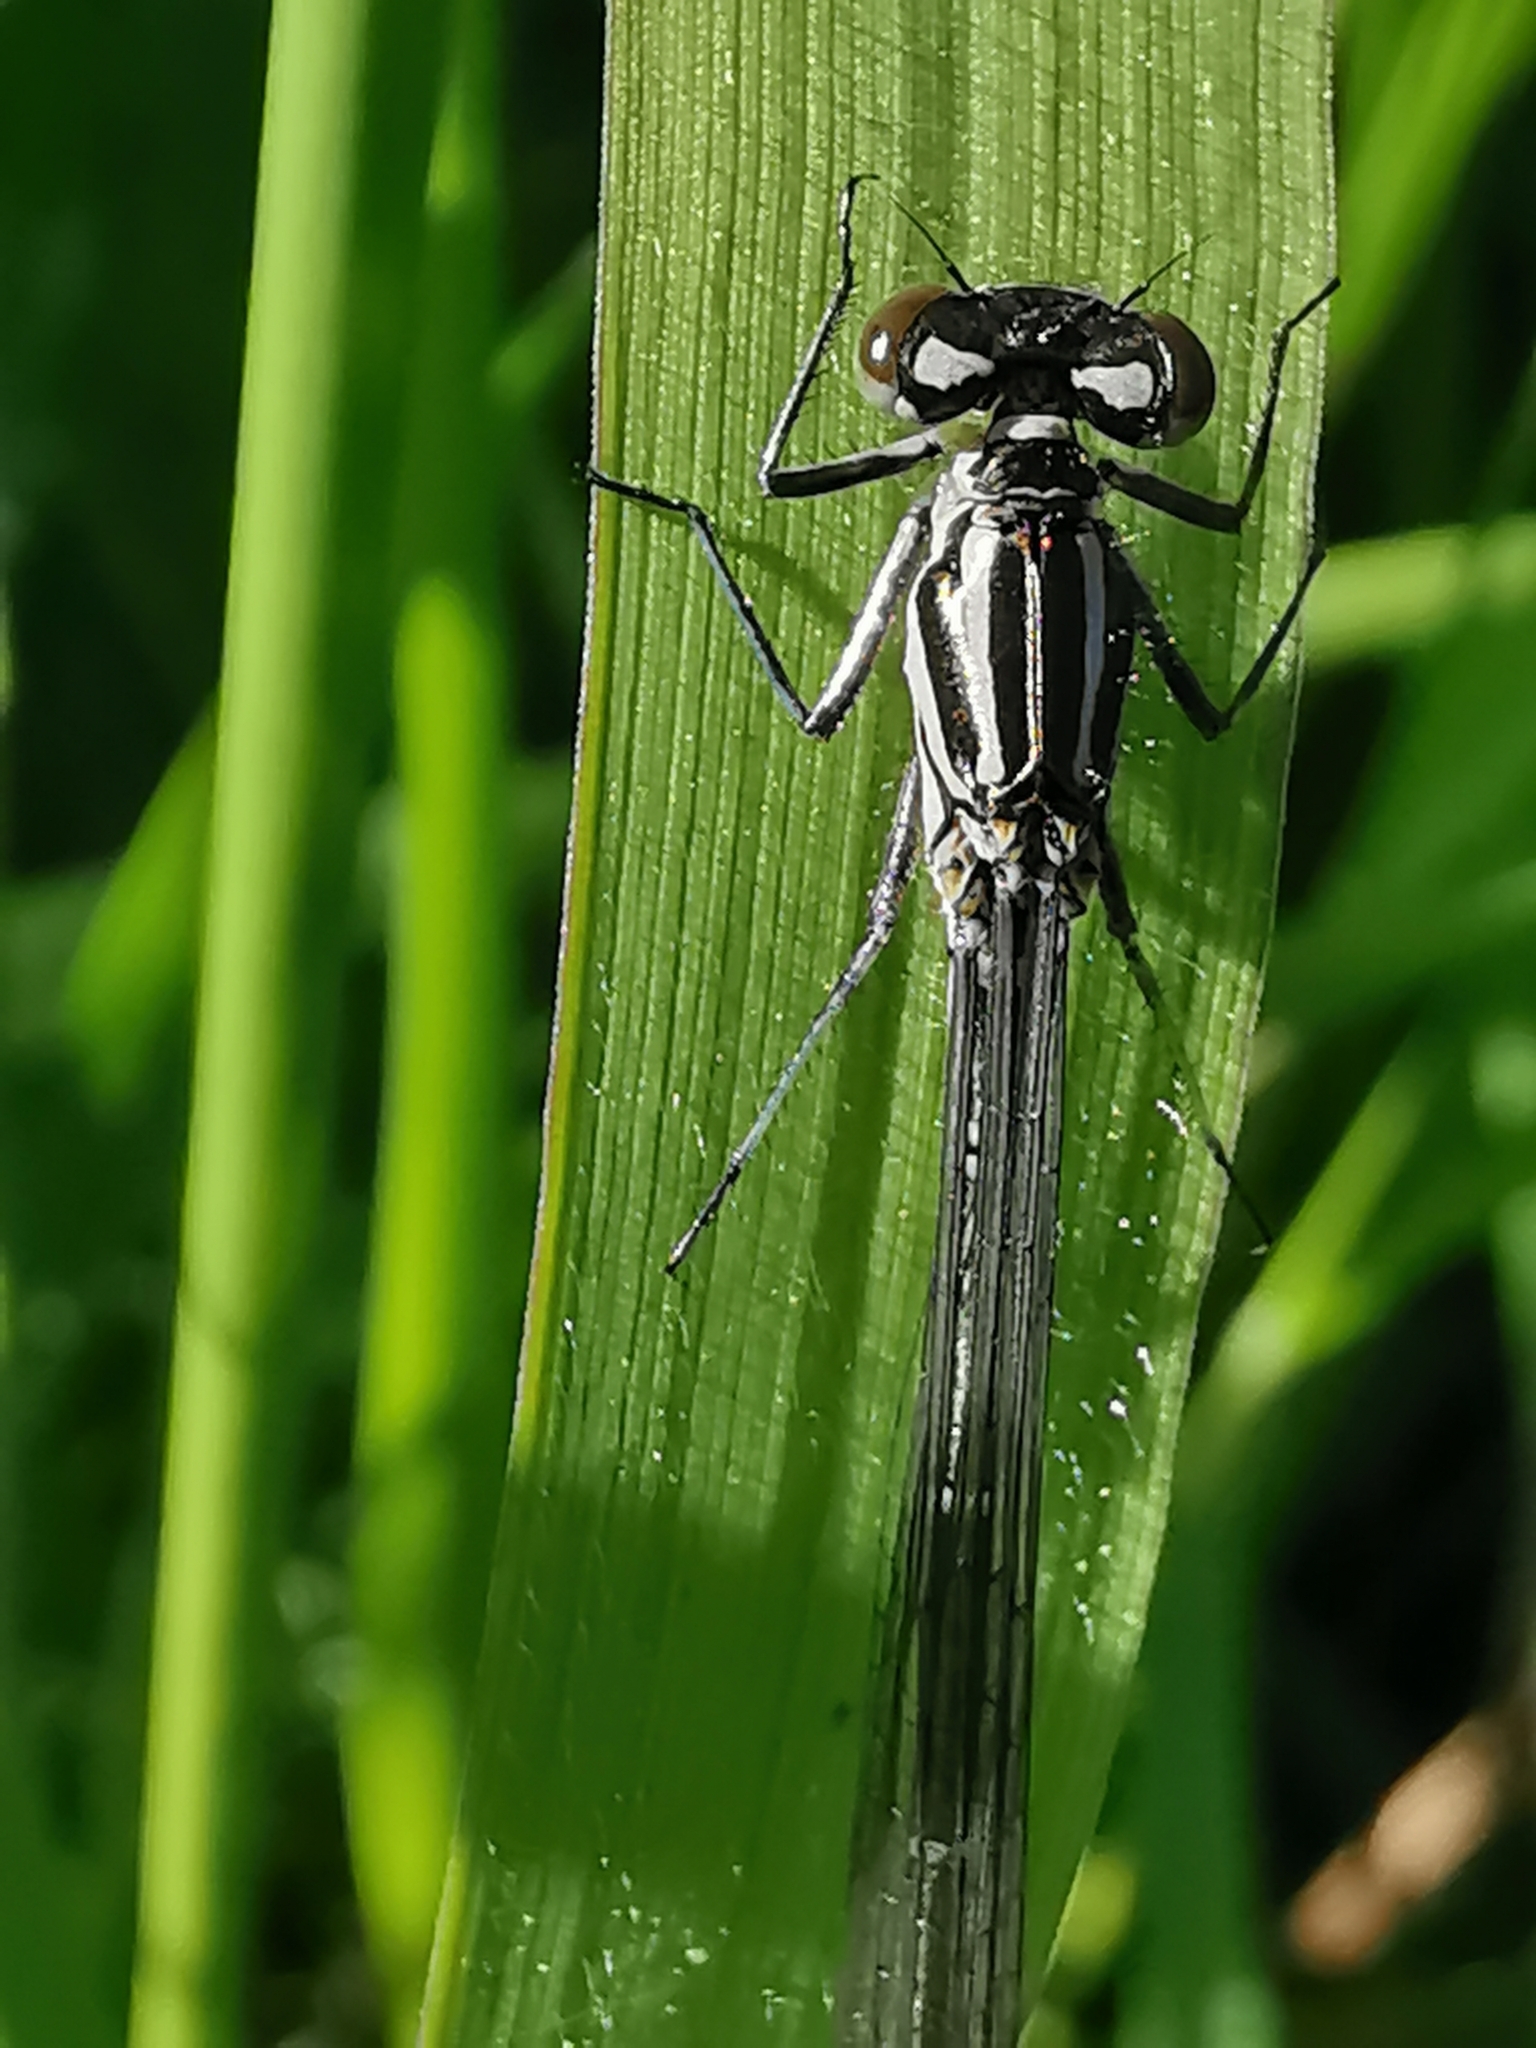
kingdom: Animalia
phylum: Arthropoda
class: Insecta
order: Odonata
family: Coenagrionidae
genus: Coenagrion
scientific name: Coenagrion puella
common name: Azure damselfly
